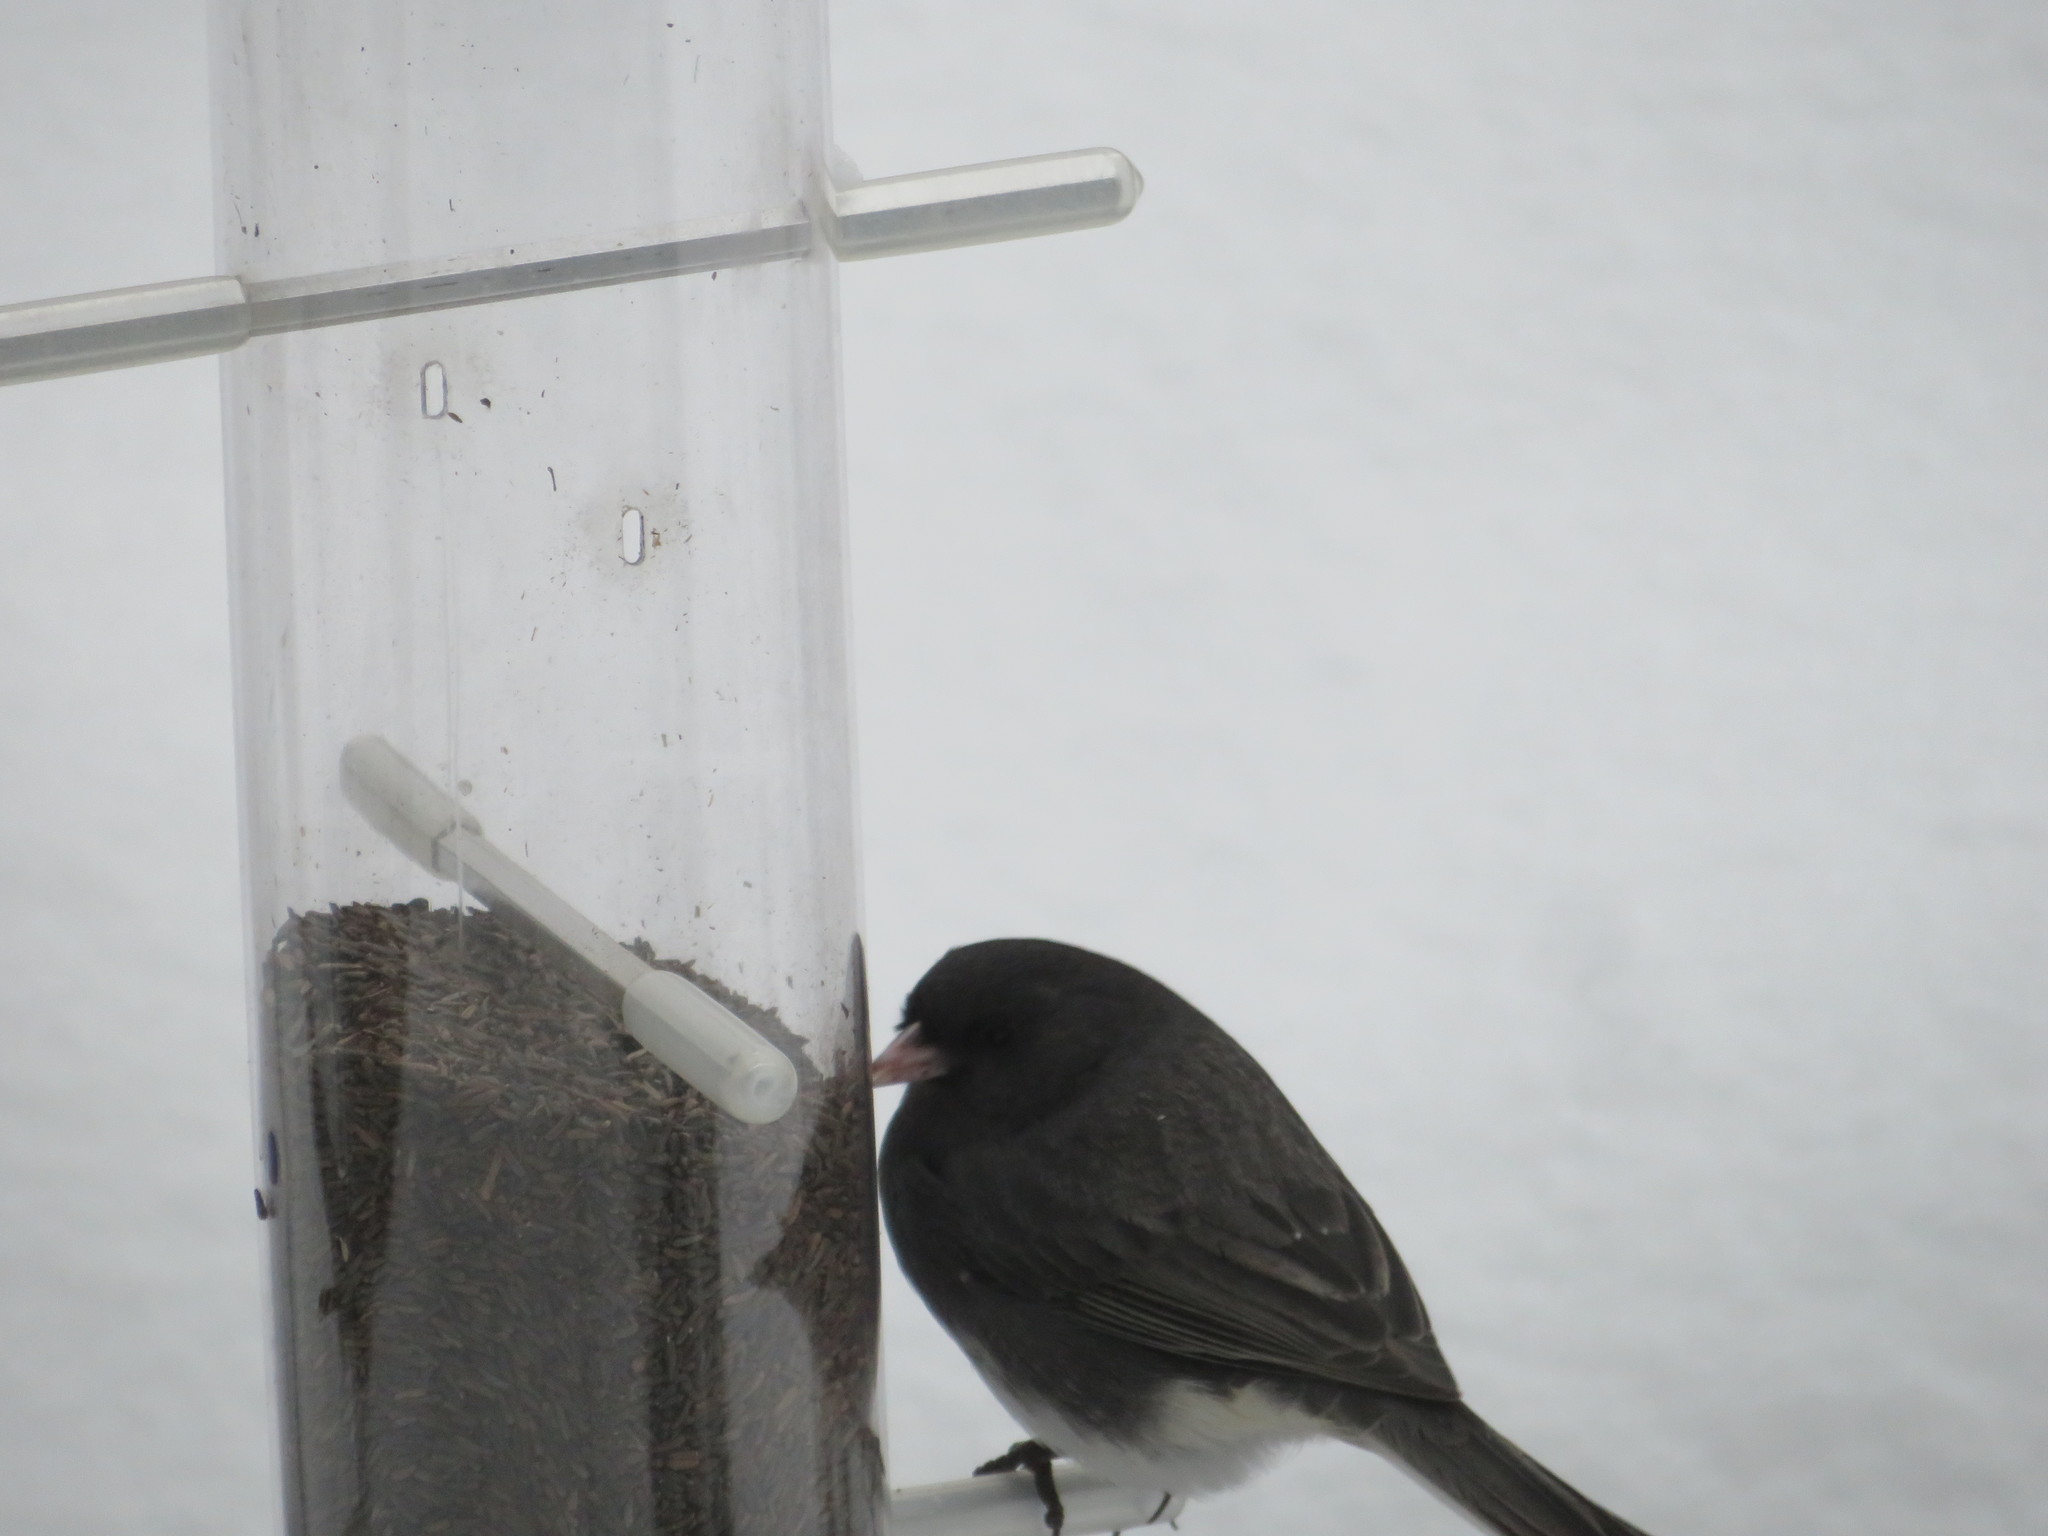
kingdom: Animalia
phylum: Chordata
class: Aves
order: Passeriformes
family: Passerellidae
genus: Junco
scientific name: Junco hyemalis
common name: Dark-eyed junco
